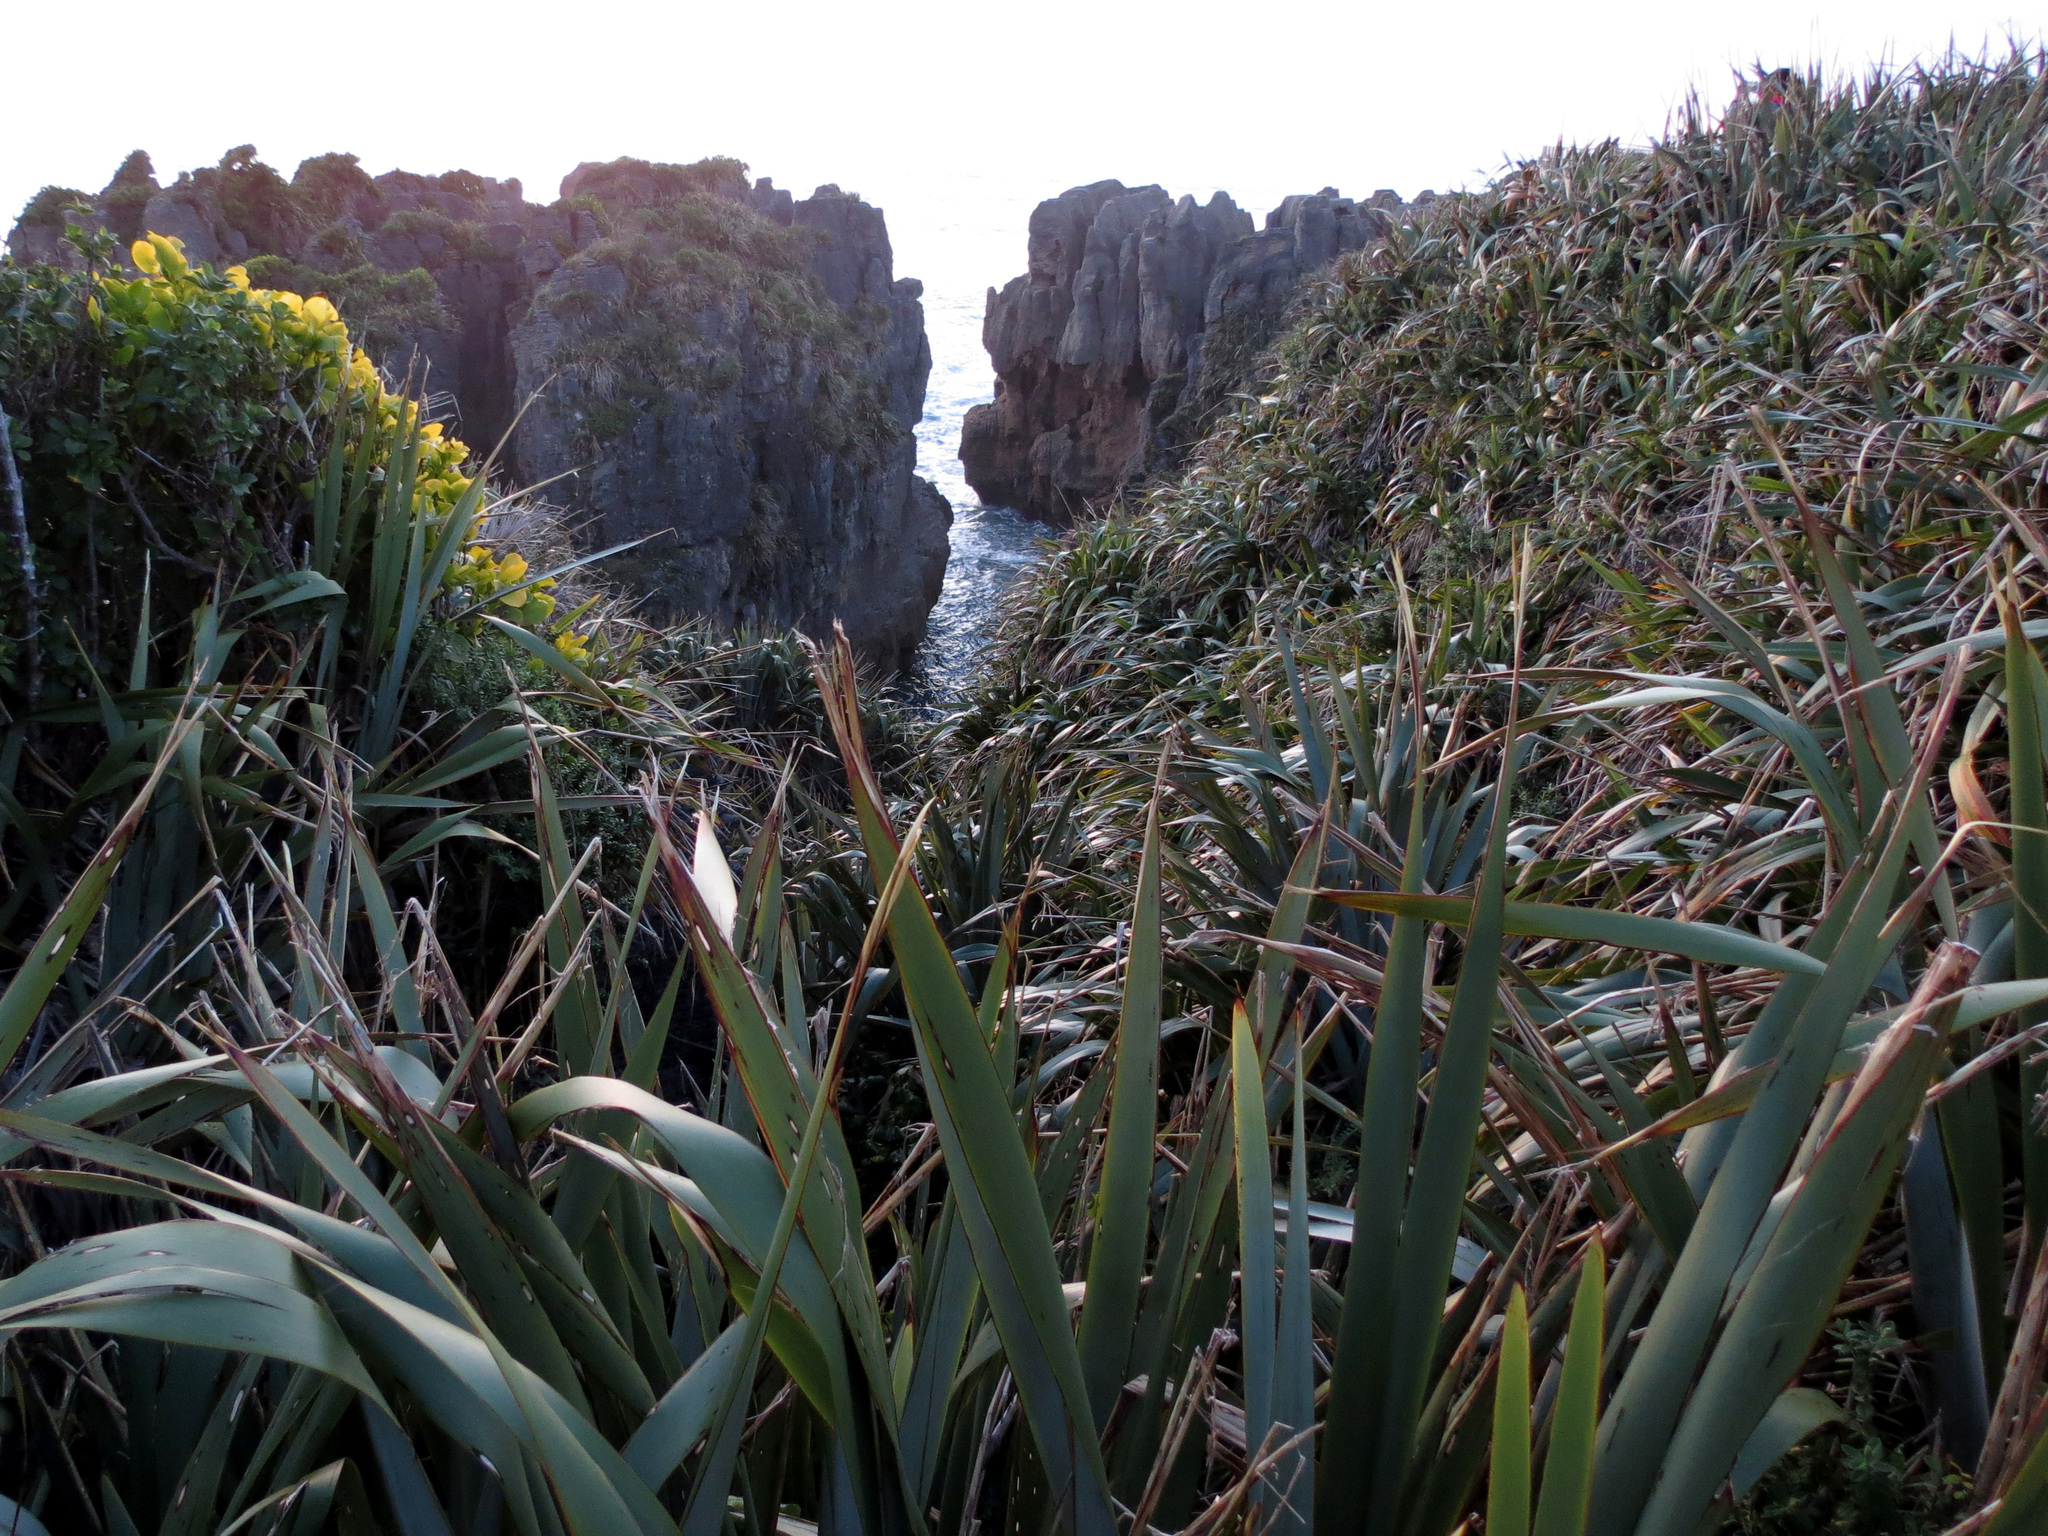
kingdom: Plantae
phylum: Tracheophyta
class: Liliopsida
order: Asparagales
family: Asphodelaceae
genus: Phormium
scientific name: Phormium tenax
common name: New zealand flax
